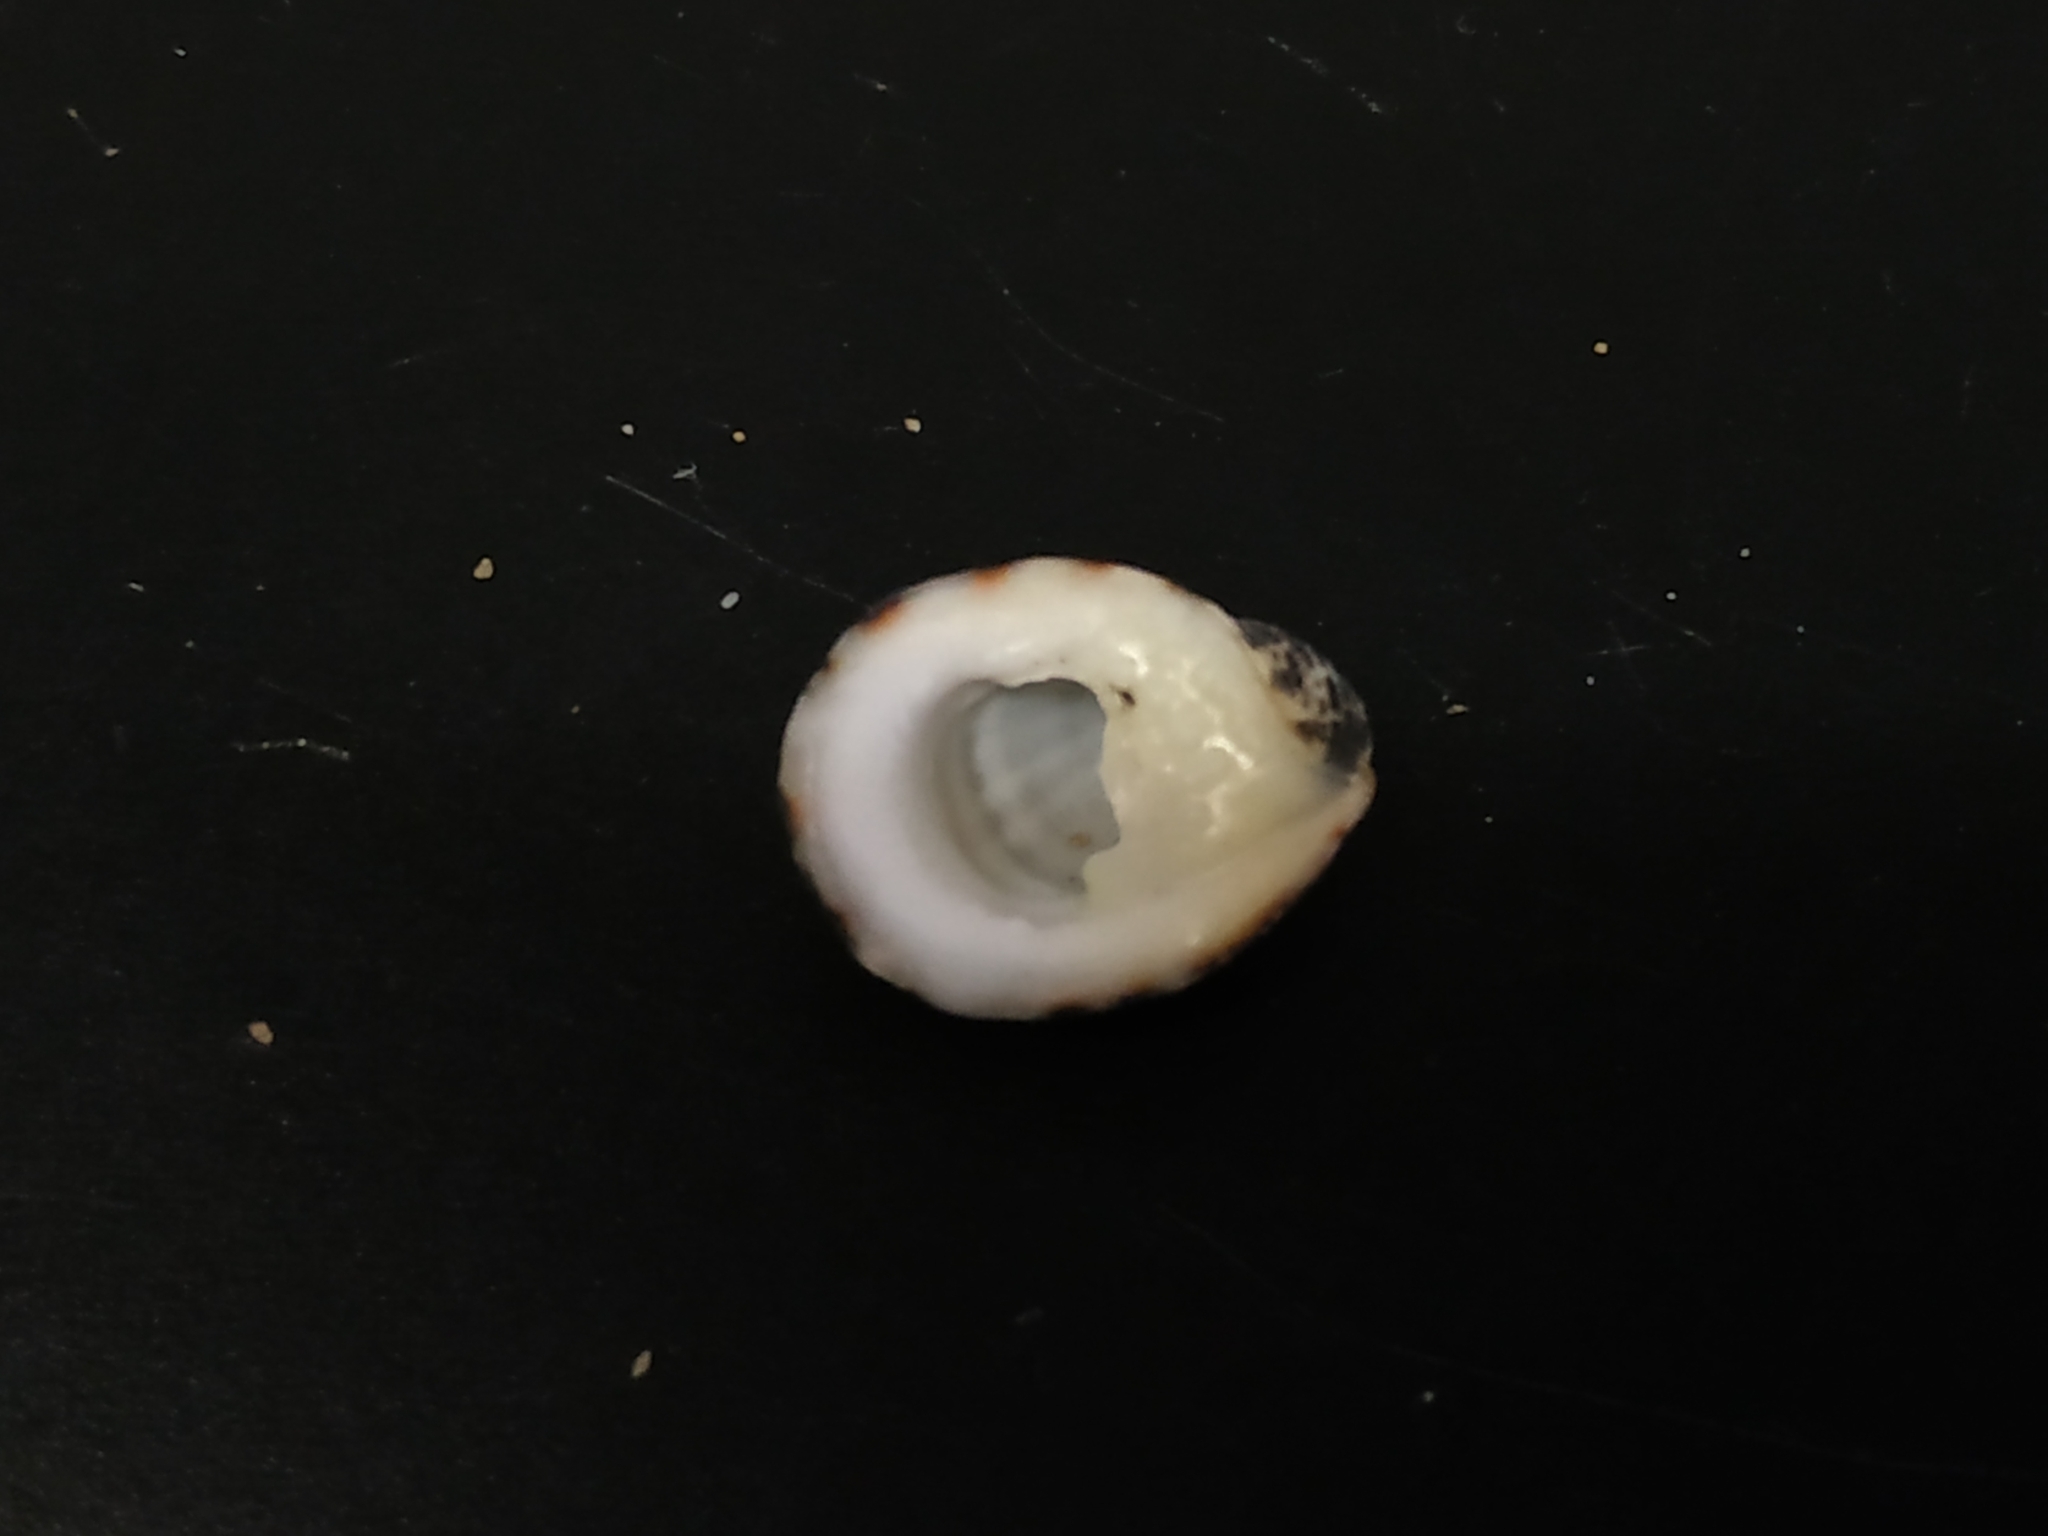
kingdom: Animalia
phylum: Mollusca
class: Gastropoda
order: Cycloneritida
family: Neritidae
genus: Nerita
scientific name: Nerita albicilla
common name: Blotched nerite
